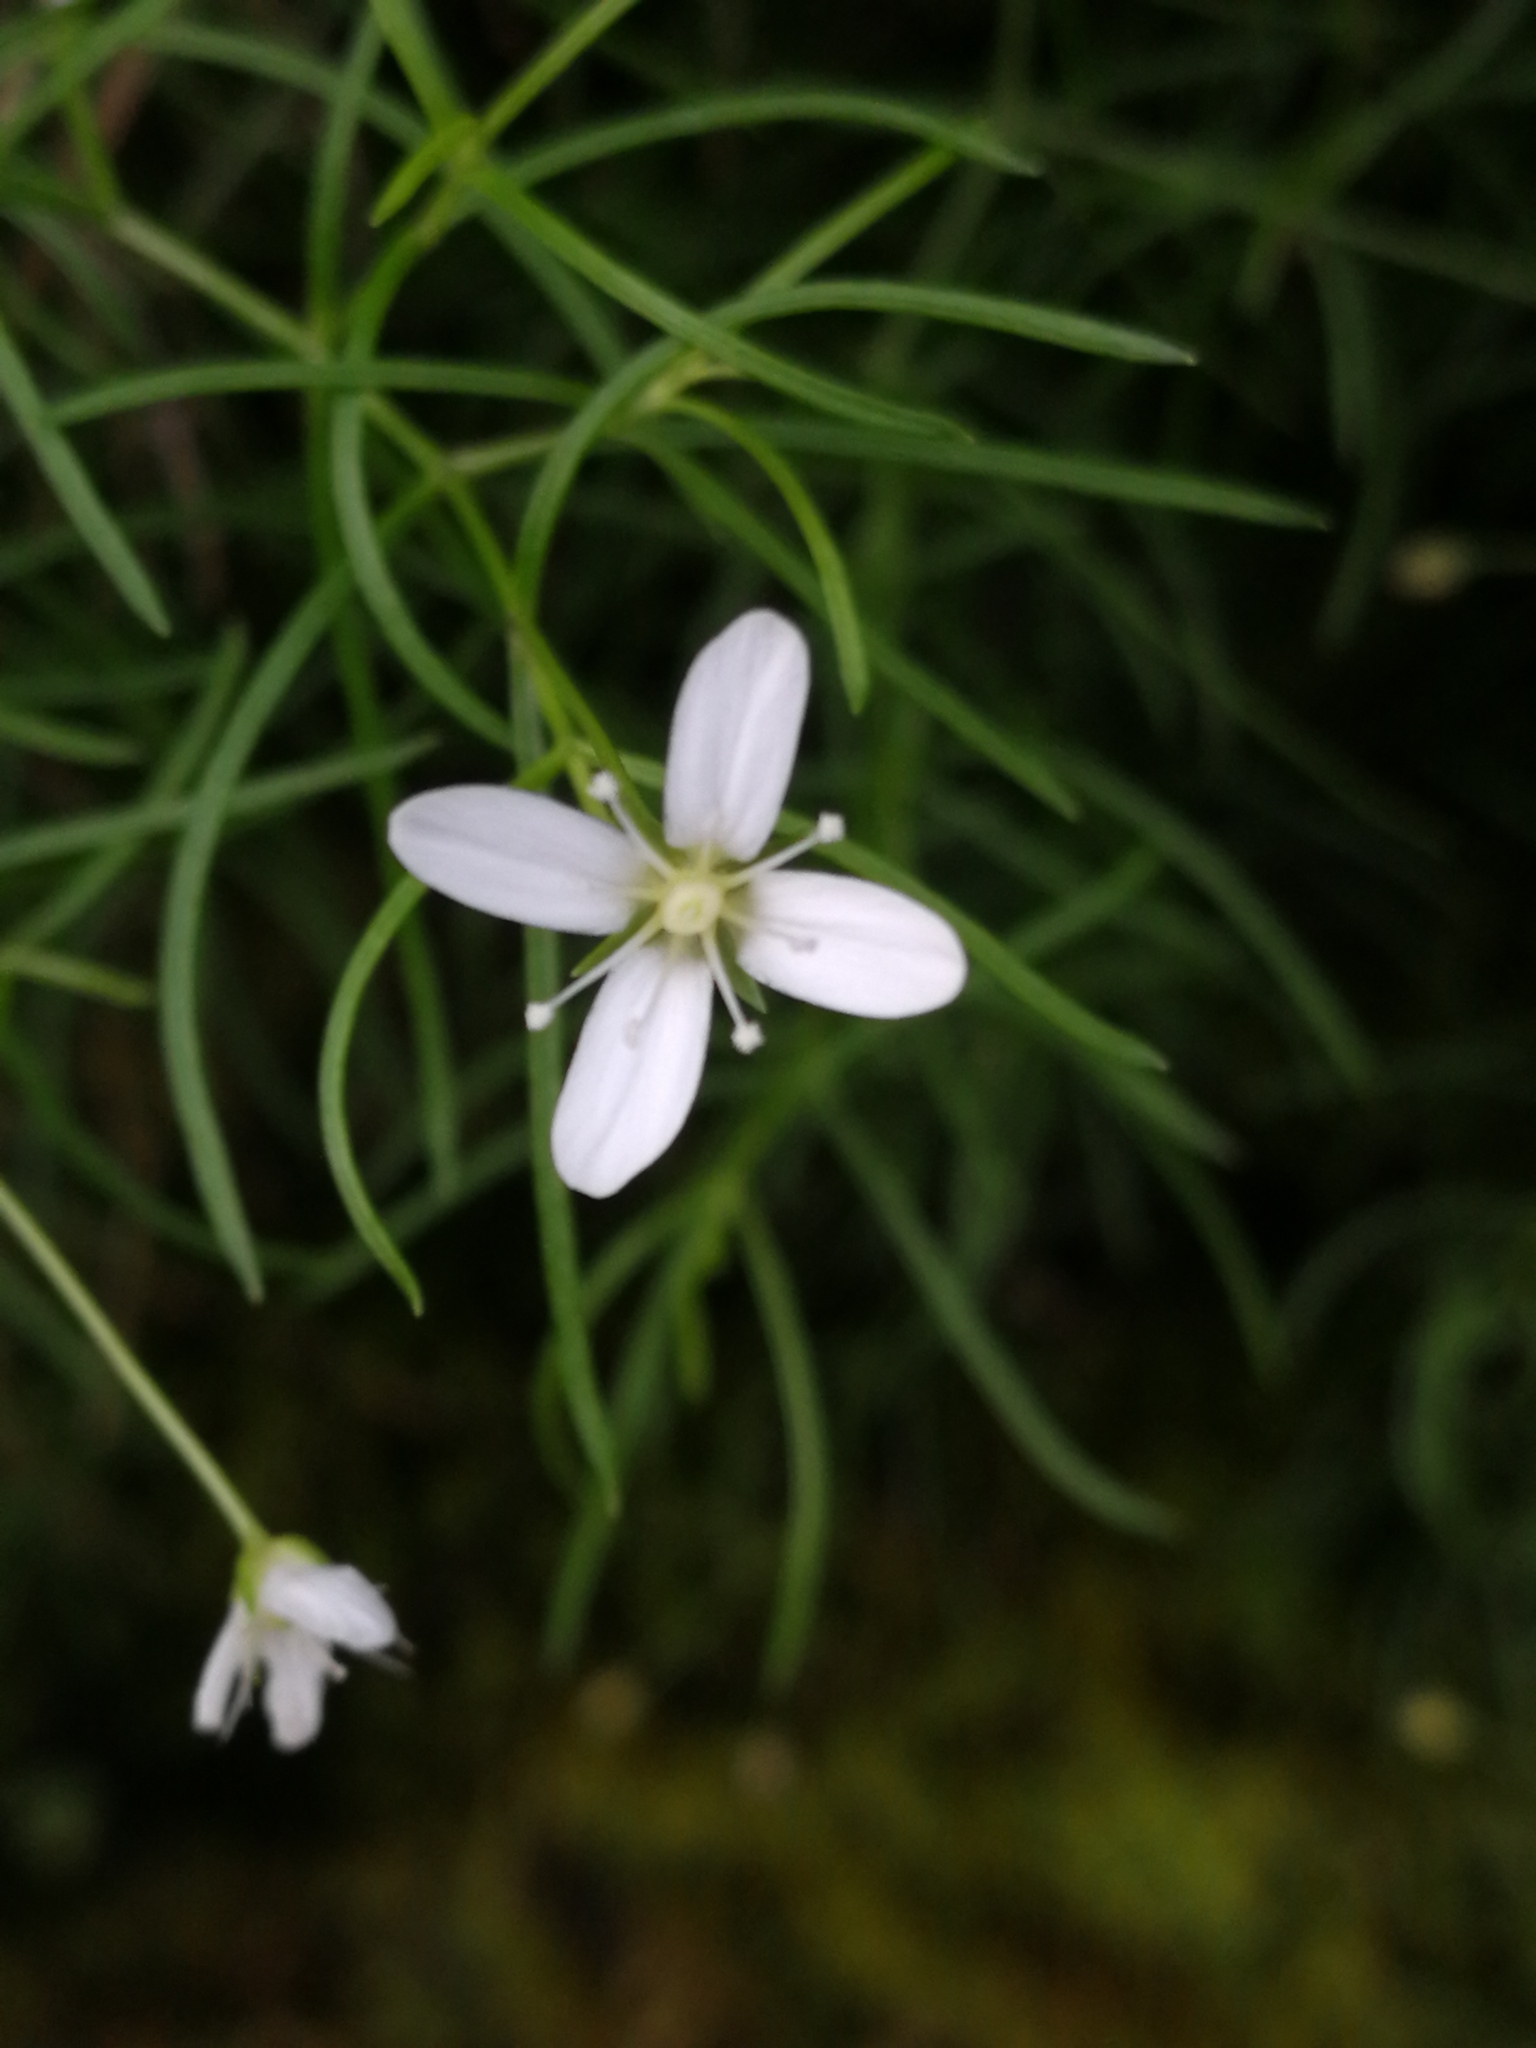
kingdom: Plantae
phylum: Tracheophyta
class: Magnoliopsida
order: Caryophyllales
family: Caryophyllaceae
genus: Moehringia
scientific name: Moehringia muscosa
